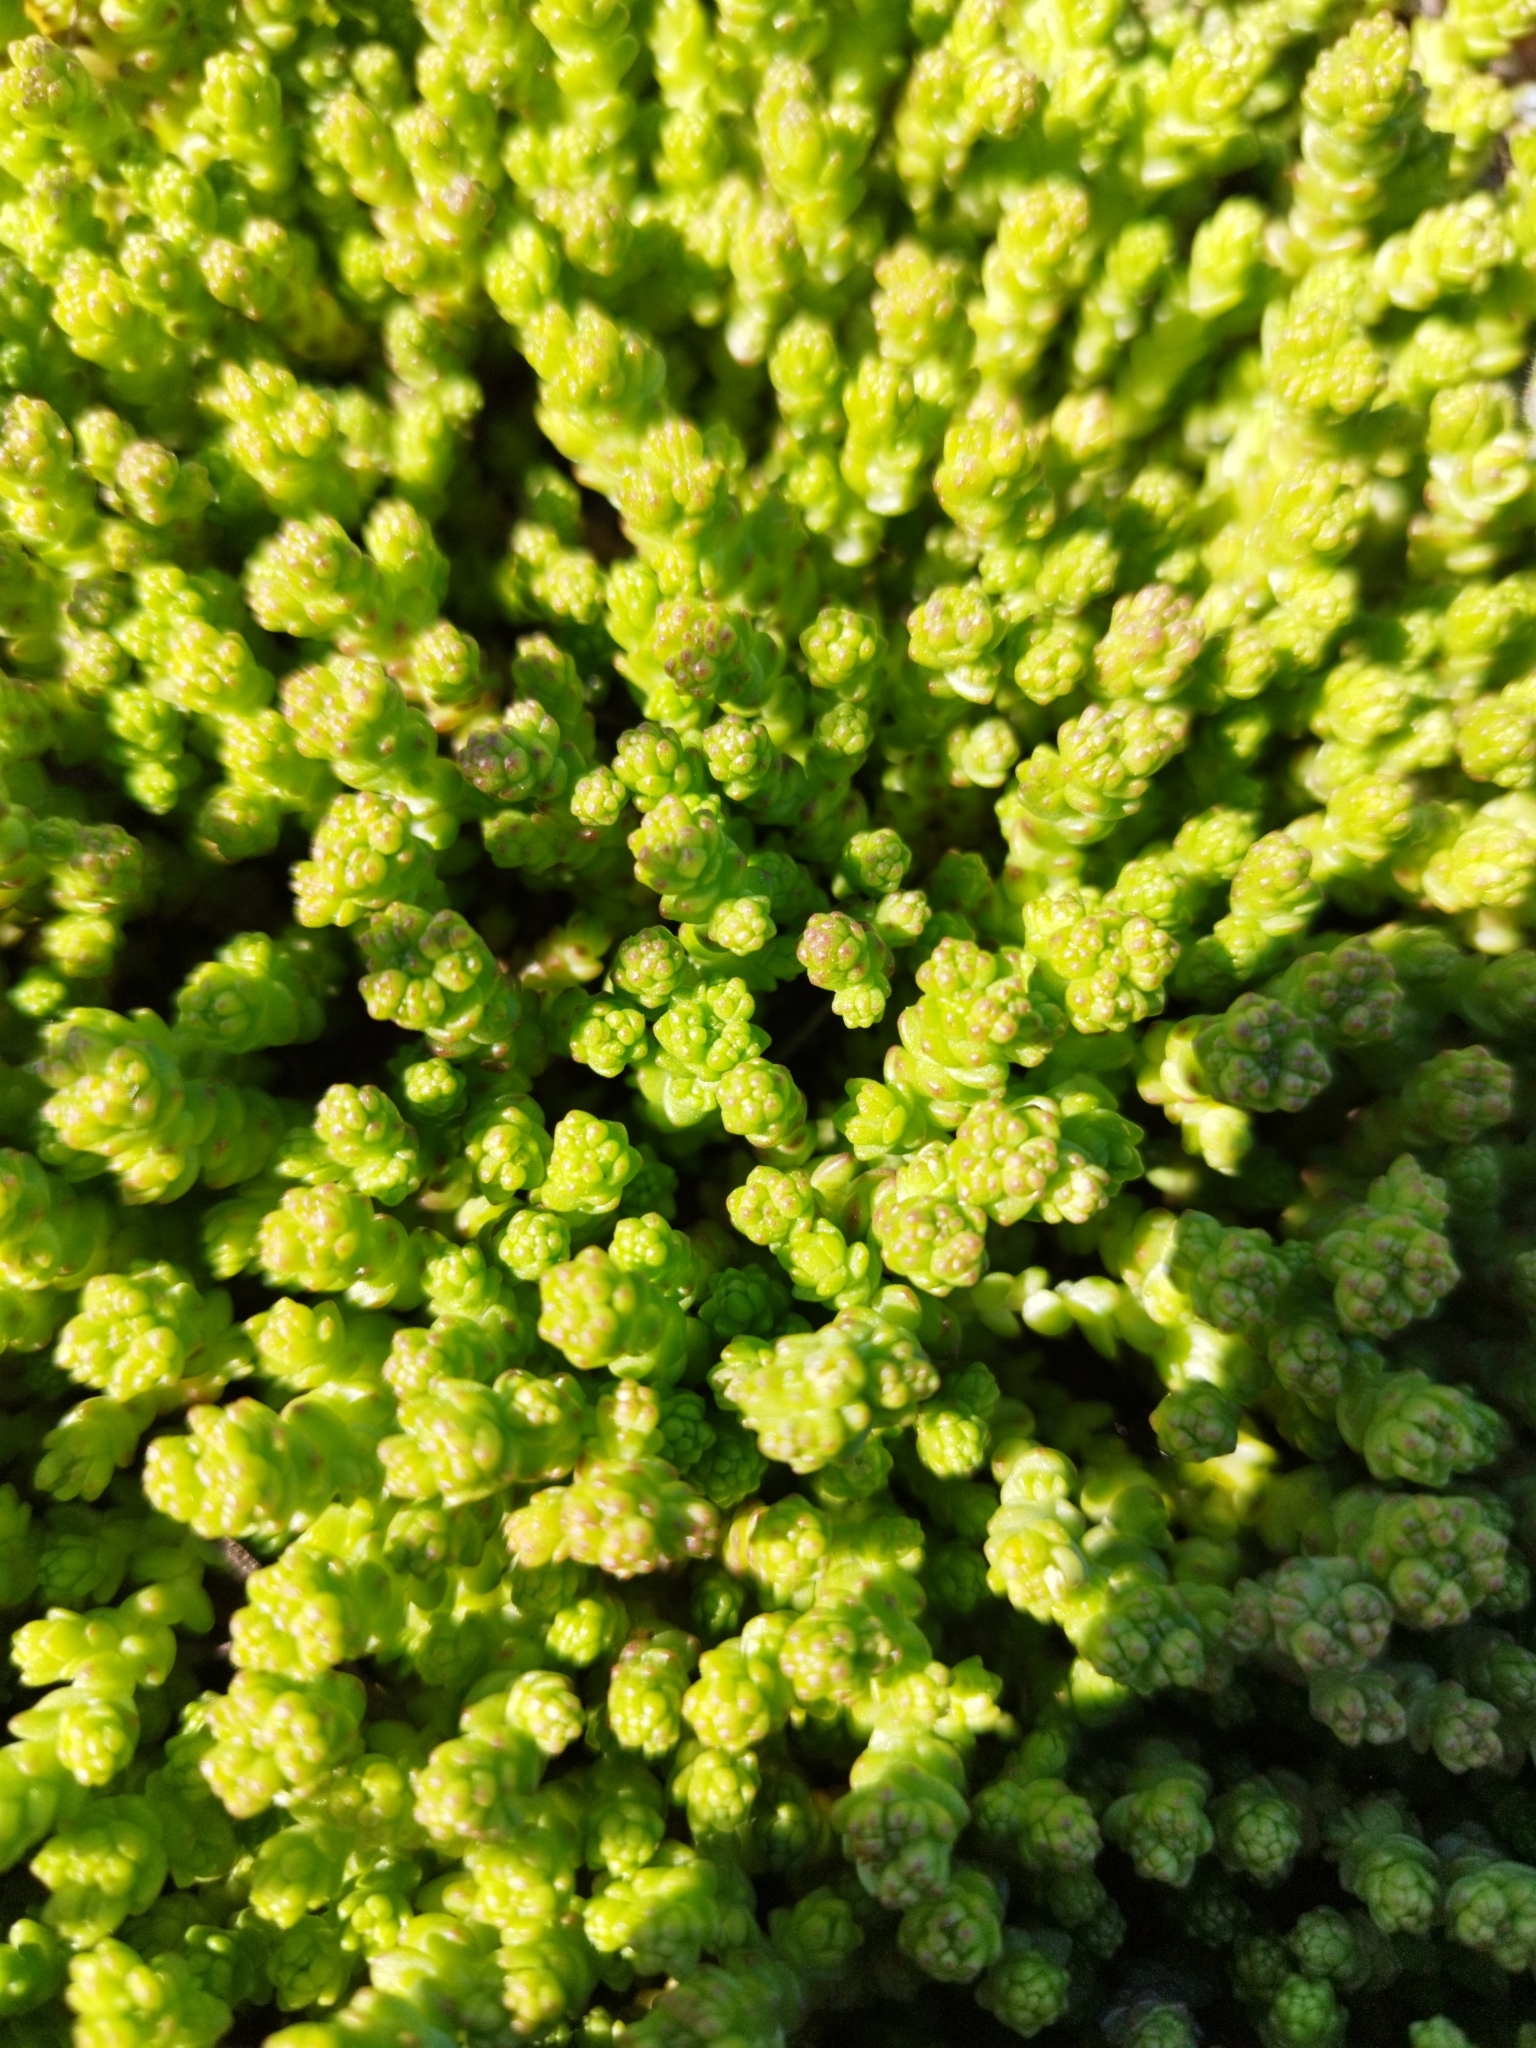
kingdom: Plantae
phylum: Tracheophyta
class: Magnoliopsida
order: Saxifragales
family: Crassulaceae
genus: Sedum
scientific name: Sedum acre
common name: Biting stonecrop
